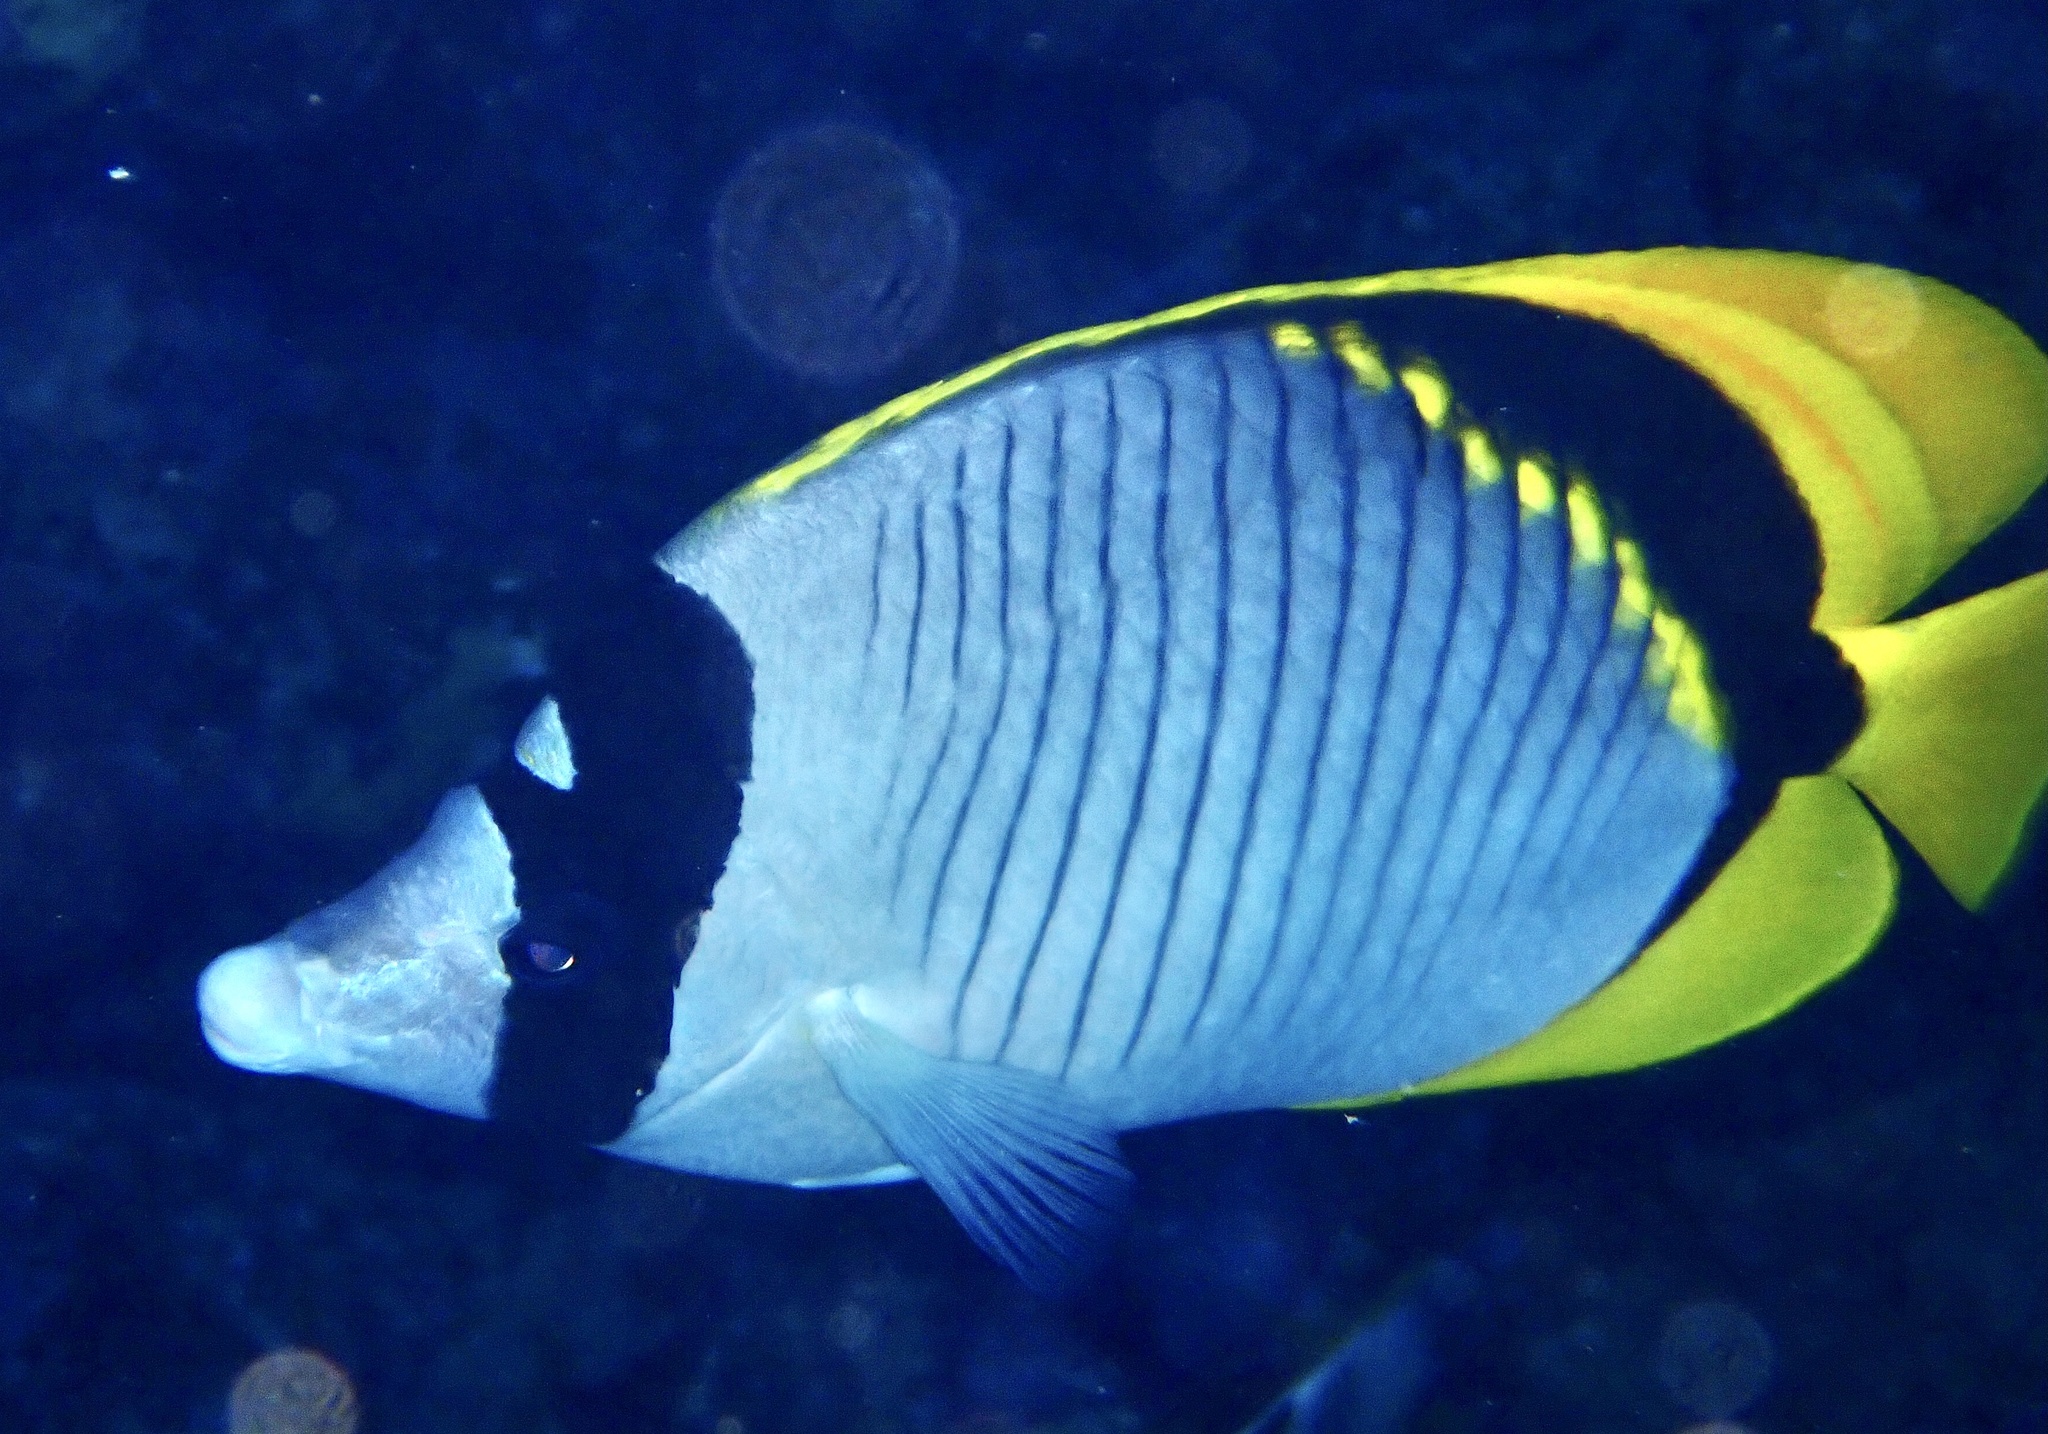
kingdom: Animalia
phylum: Chordata
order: Perciformes
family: Chaetodontidae
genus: Chaetodon
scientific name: Chaetodon lineolatus
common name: Lined butterflyfish
